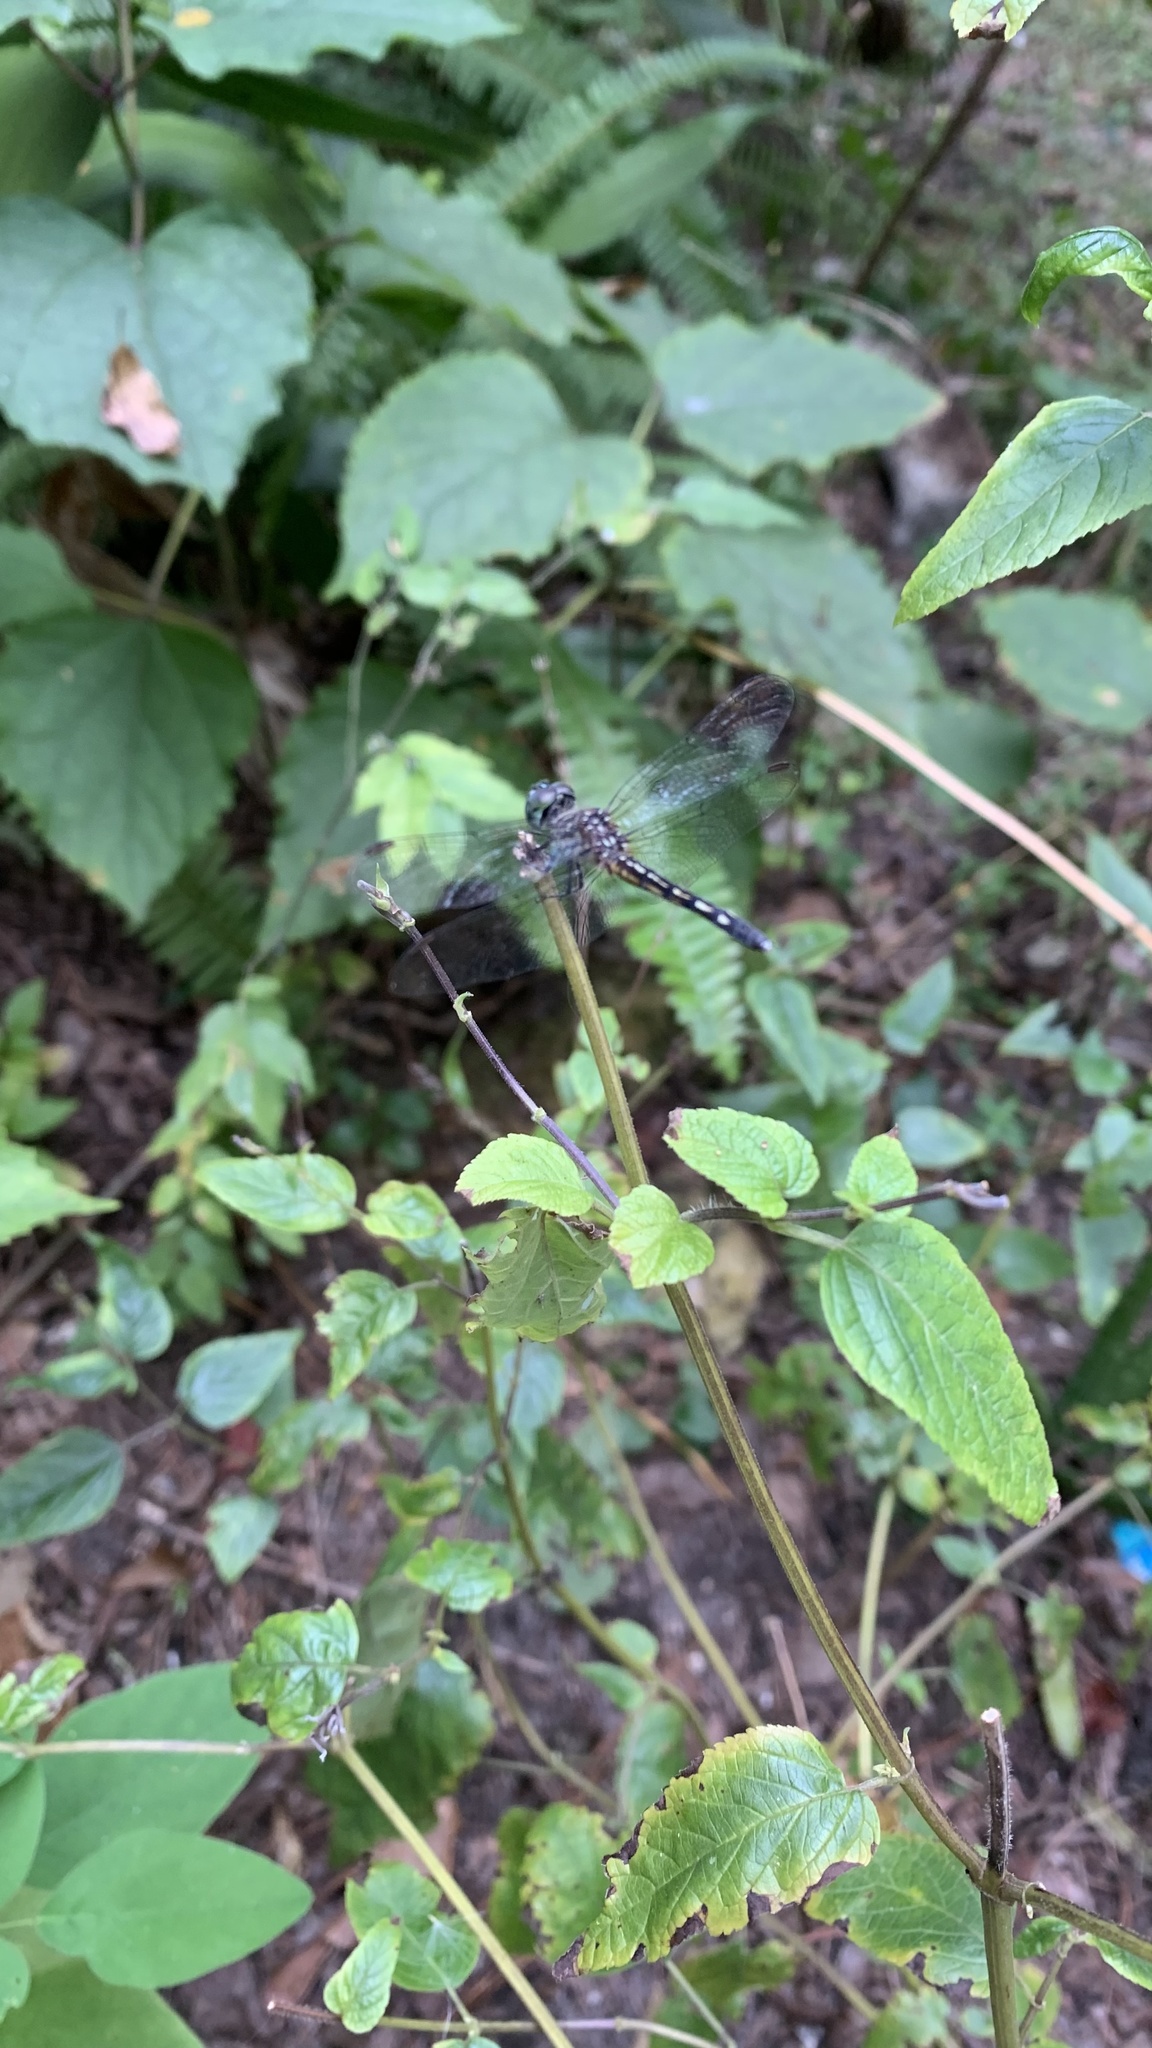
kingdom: Animalia
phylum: Arthropoda
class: Insecta
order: Odonata
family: Libellulidae
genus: Pachydiplax
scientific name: Pachydiplax longipennis
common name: Blue dasher
